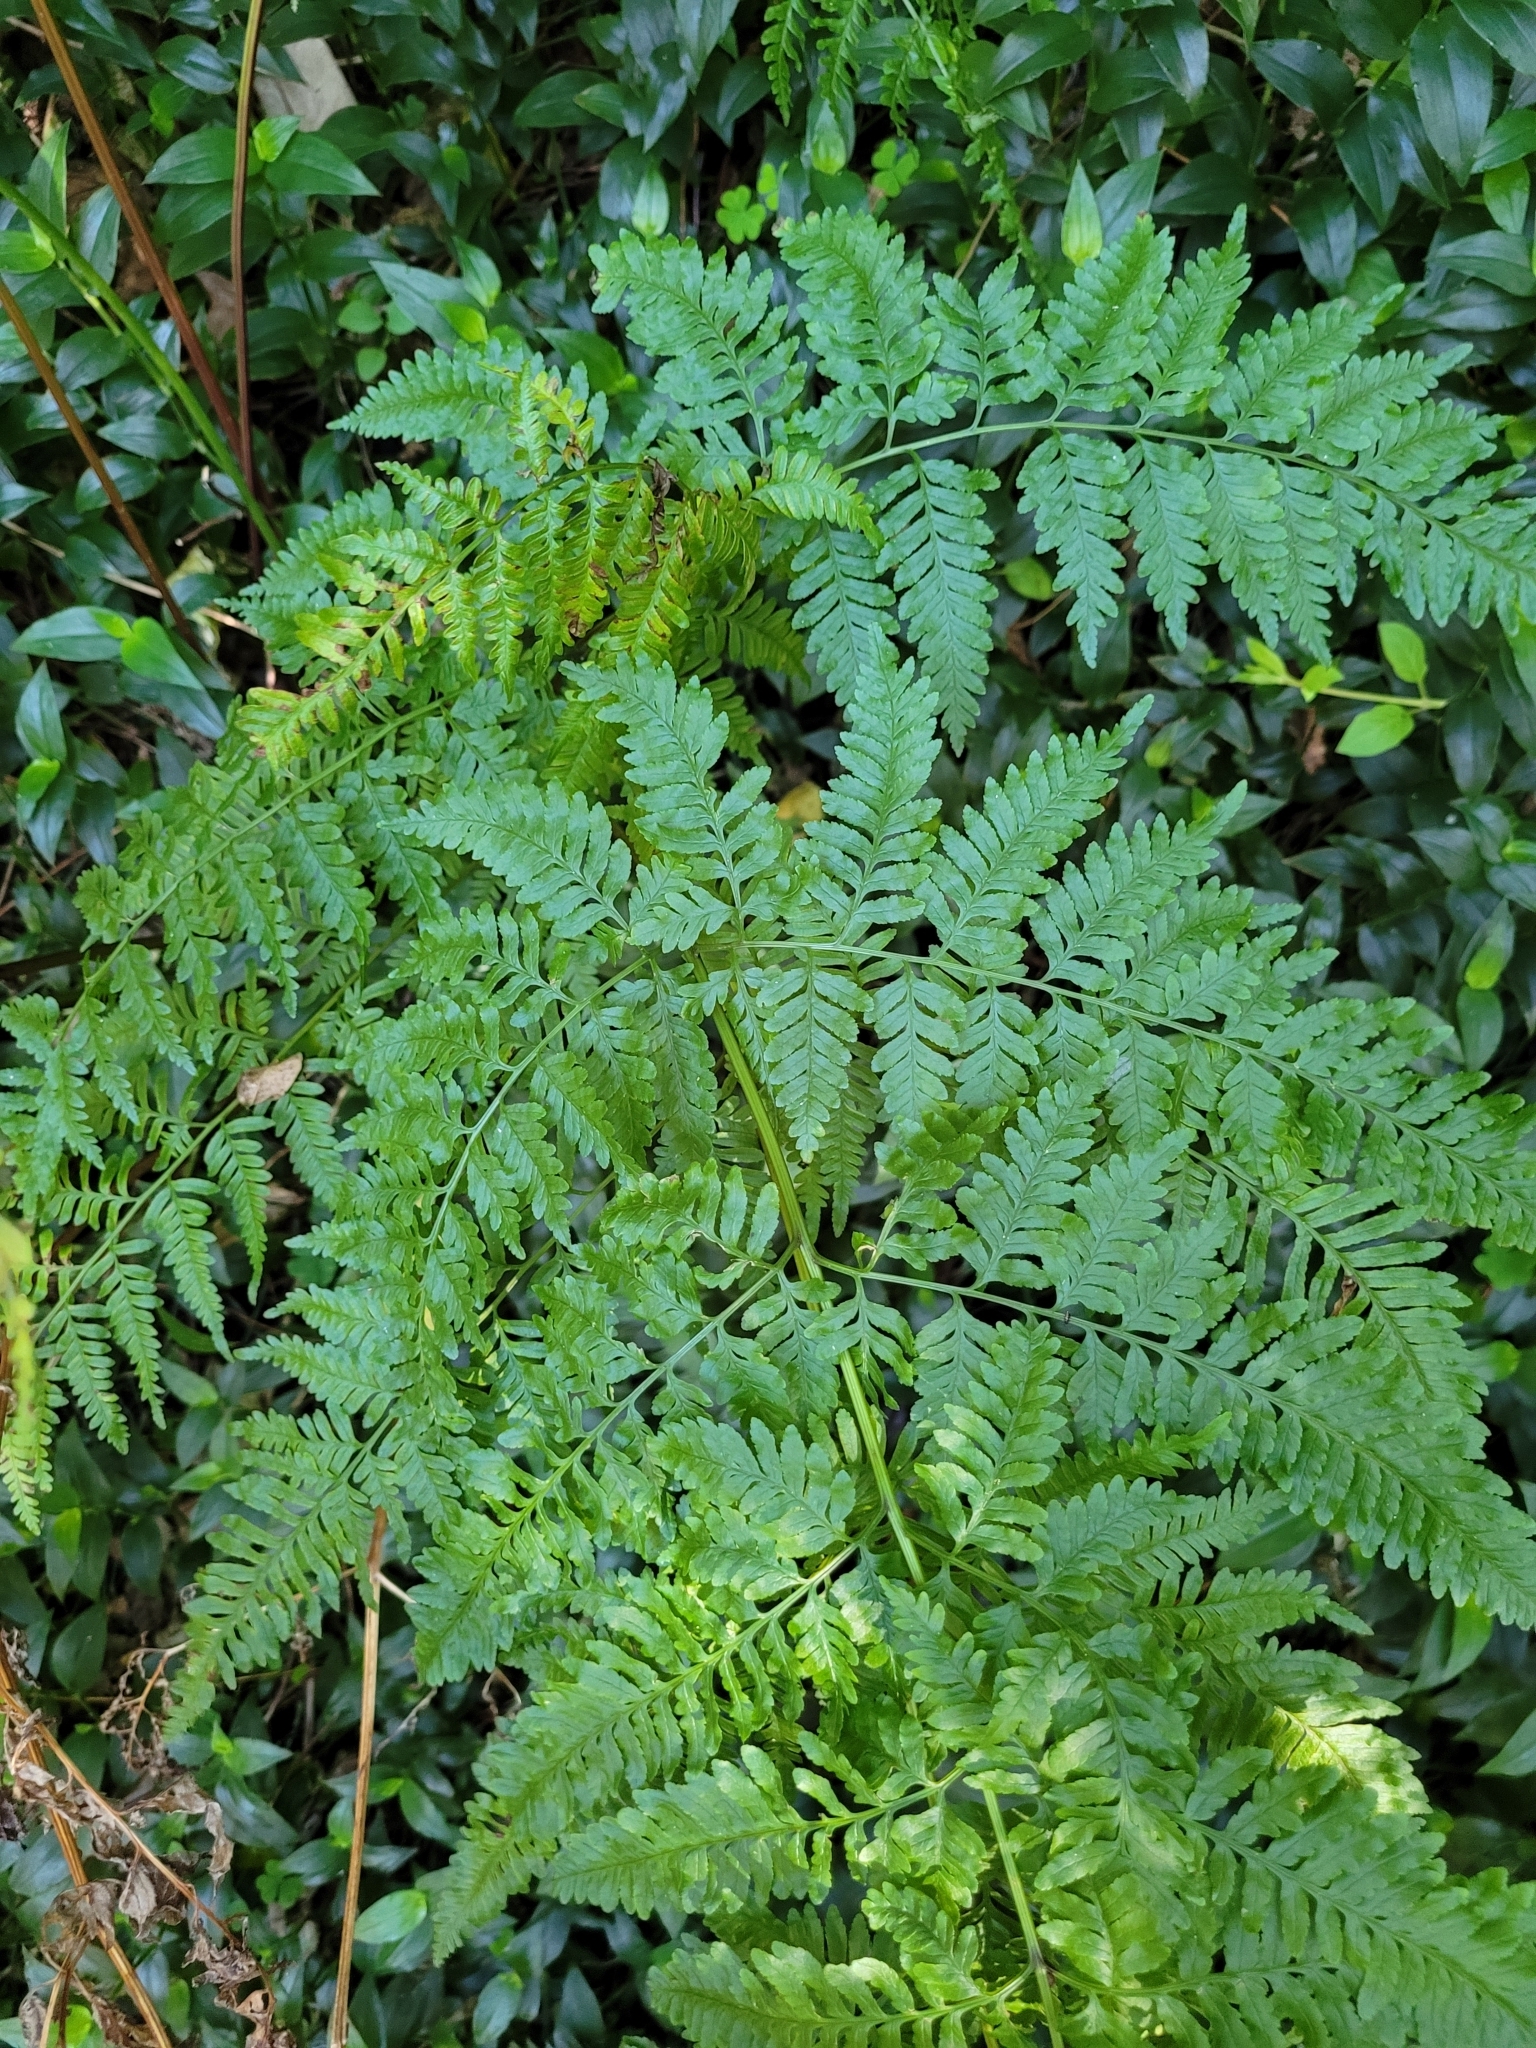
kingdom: Plantae
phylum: Tracheophyta
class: Polypodiopsida
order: Polypodiales
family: Pteridaceae
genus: Pteris
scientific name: Pteris tremula
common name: Australian brake
